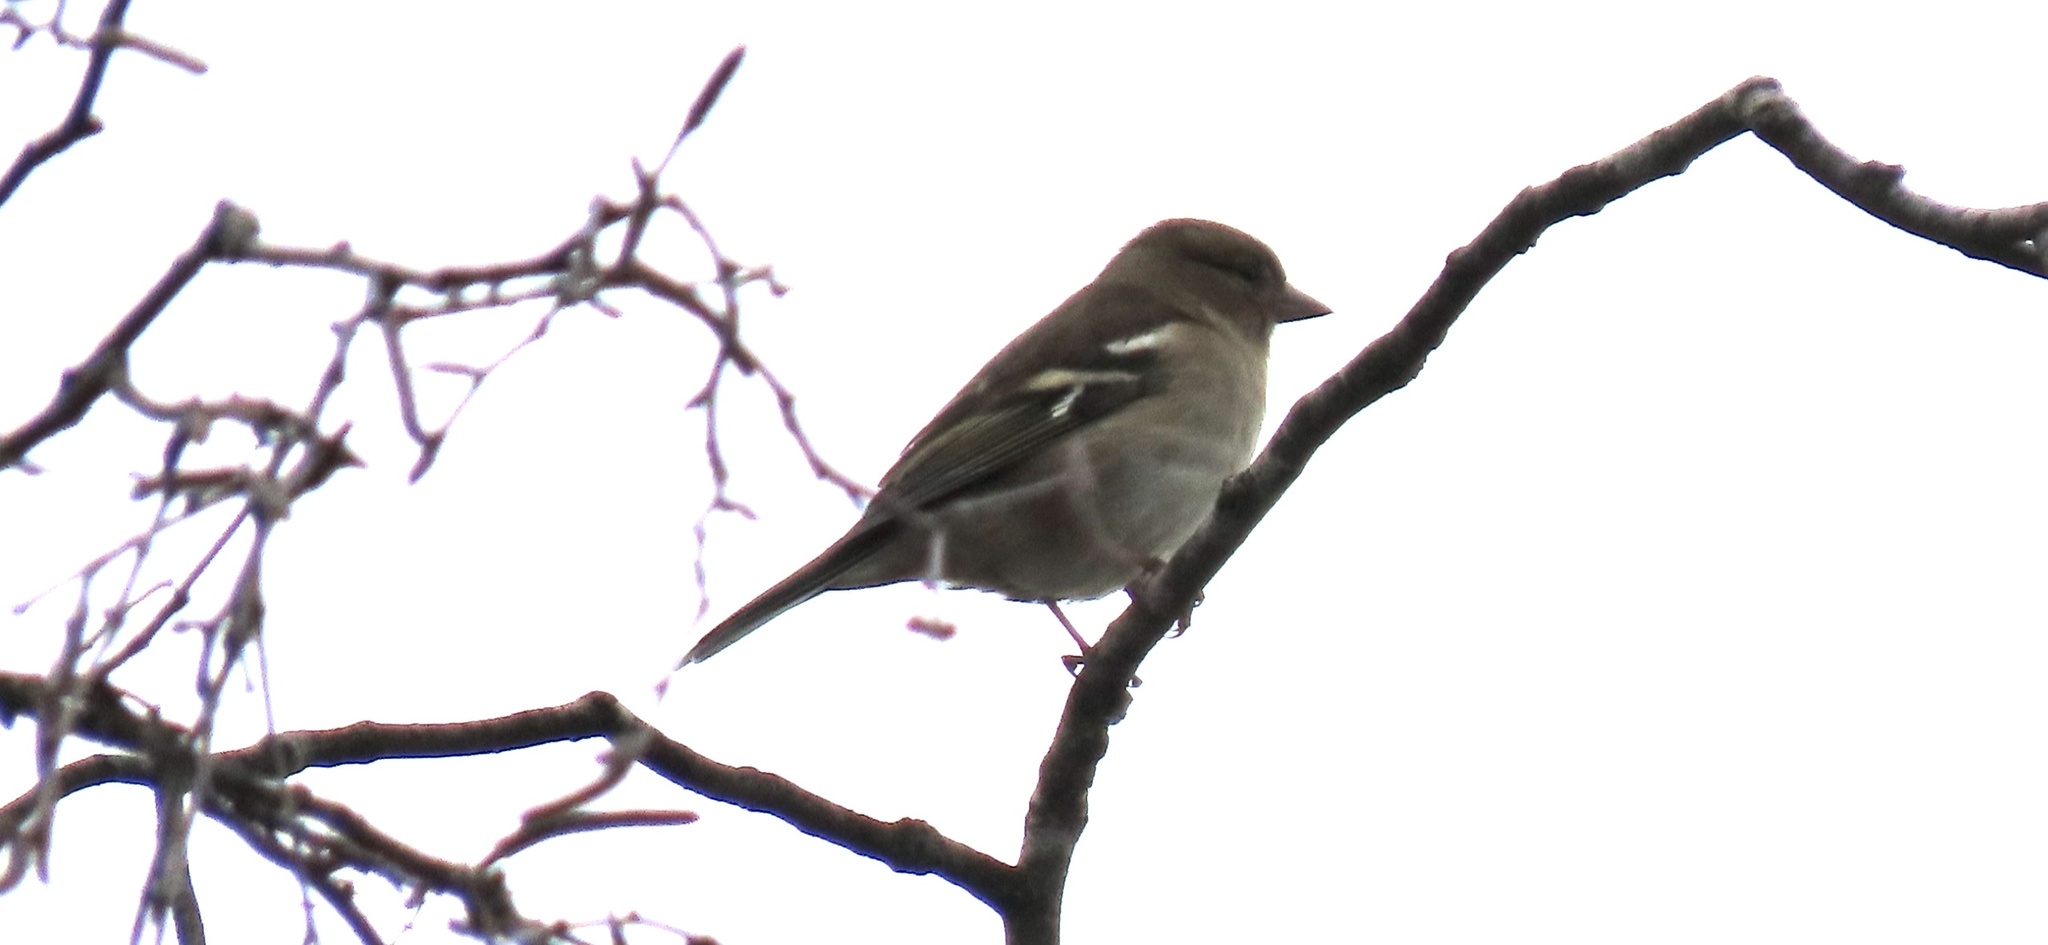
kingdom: Animalia
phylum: Chordata
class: Aves
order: Passeriformes
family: Fringillidae
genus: Fringilla
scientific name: Fringilla coelebs
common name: Common chaffinch
